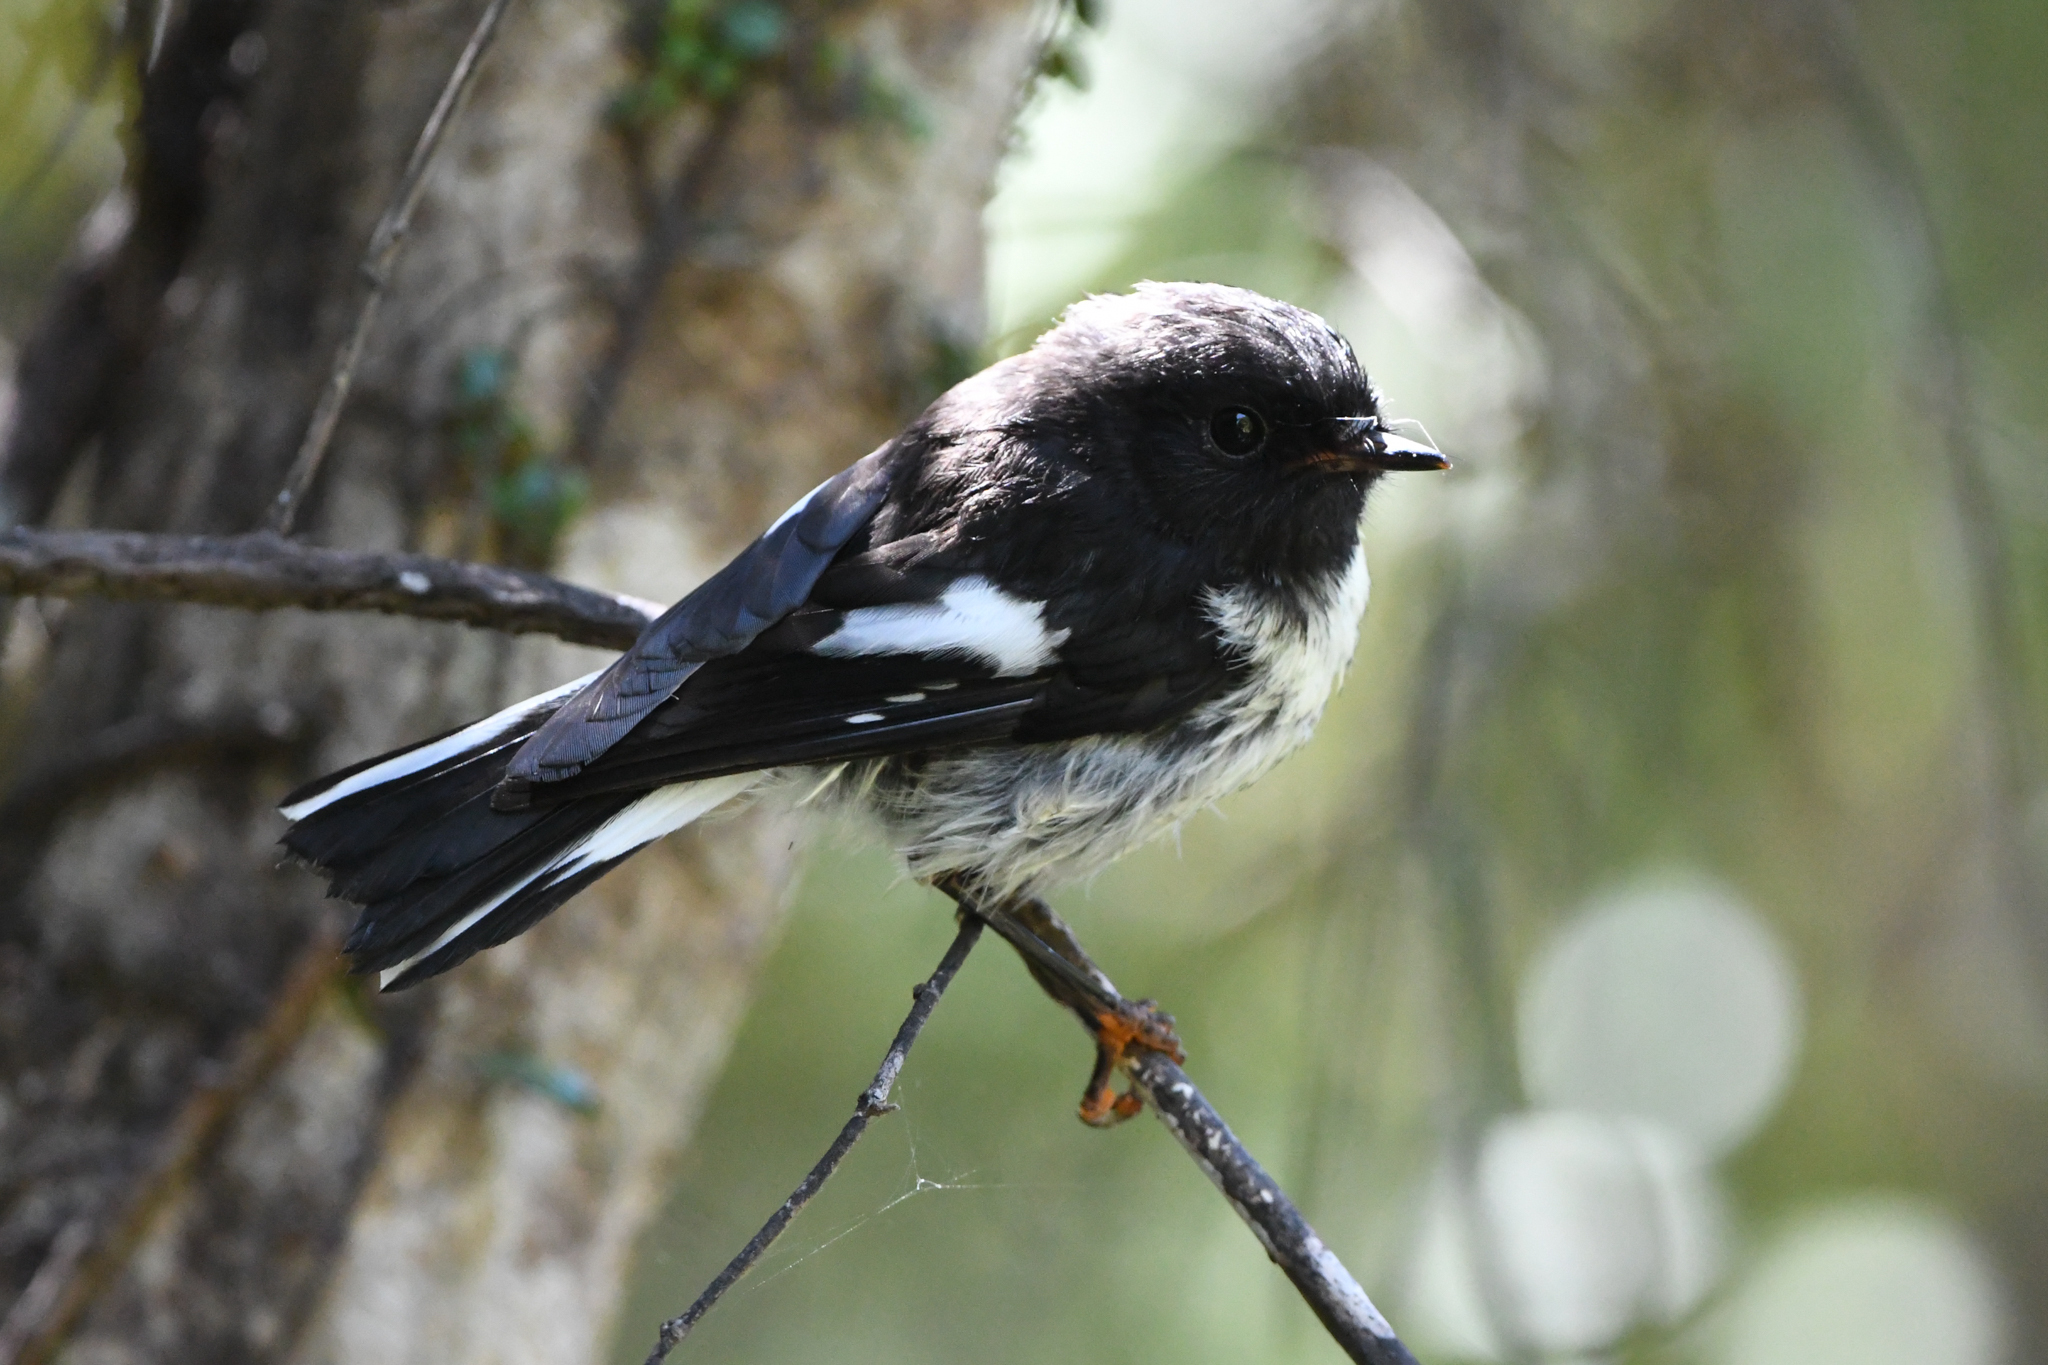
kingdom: Animalia
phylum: Chordata
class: Aves
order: Passeriformes
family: Petroicidae
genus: Petroica
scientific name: Petroica macrocephala
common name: Tomtit
